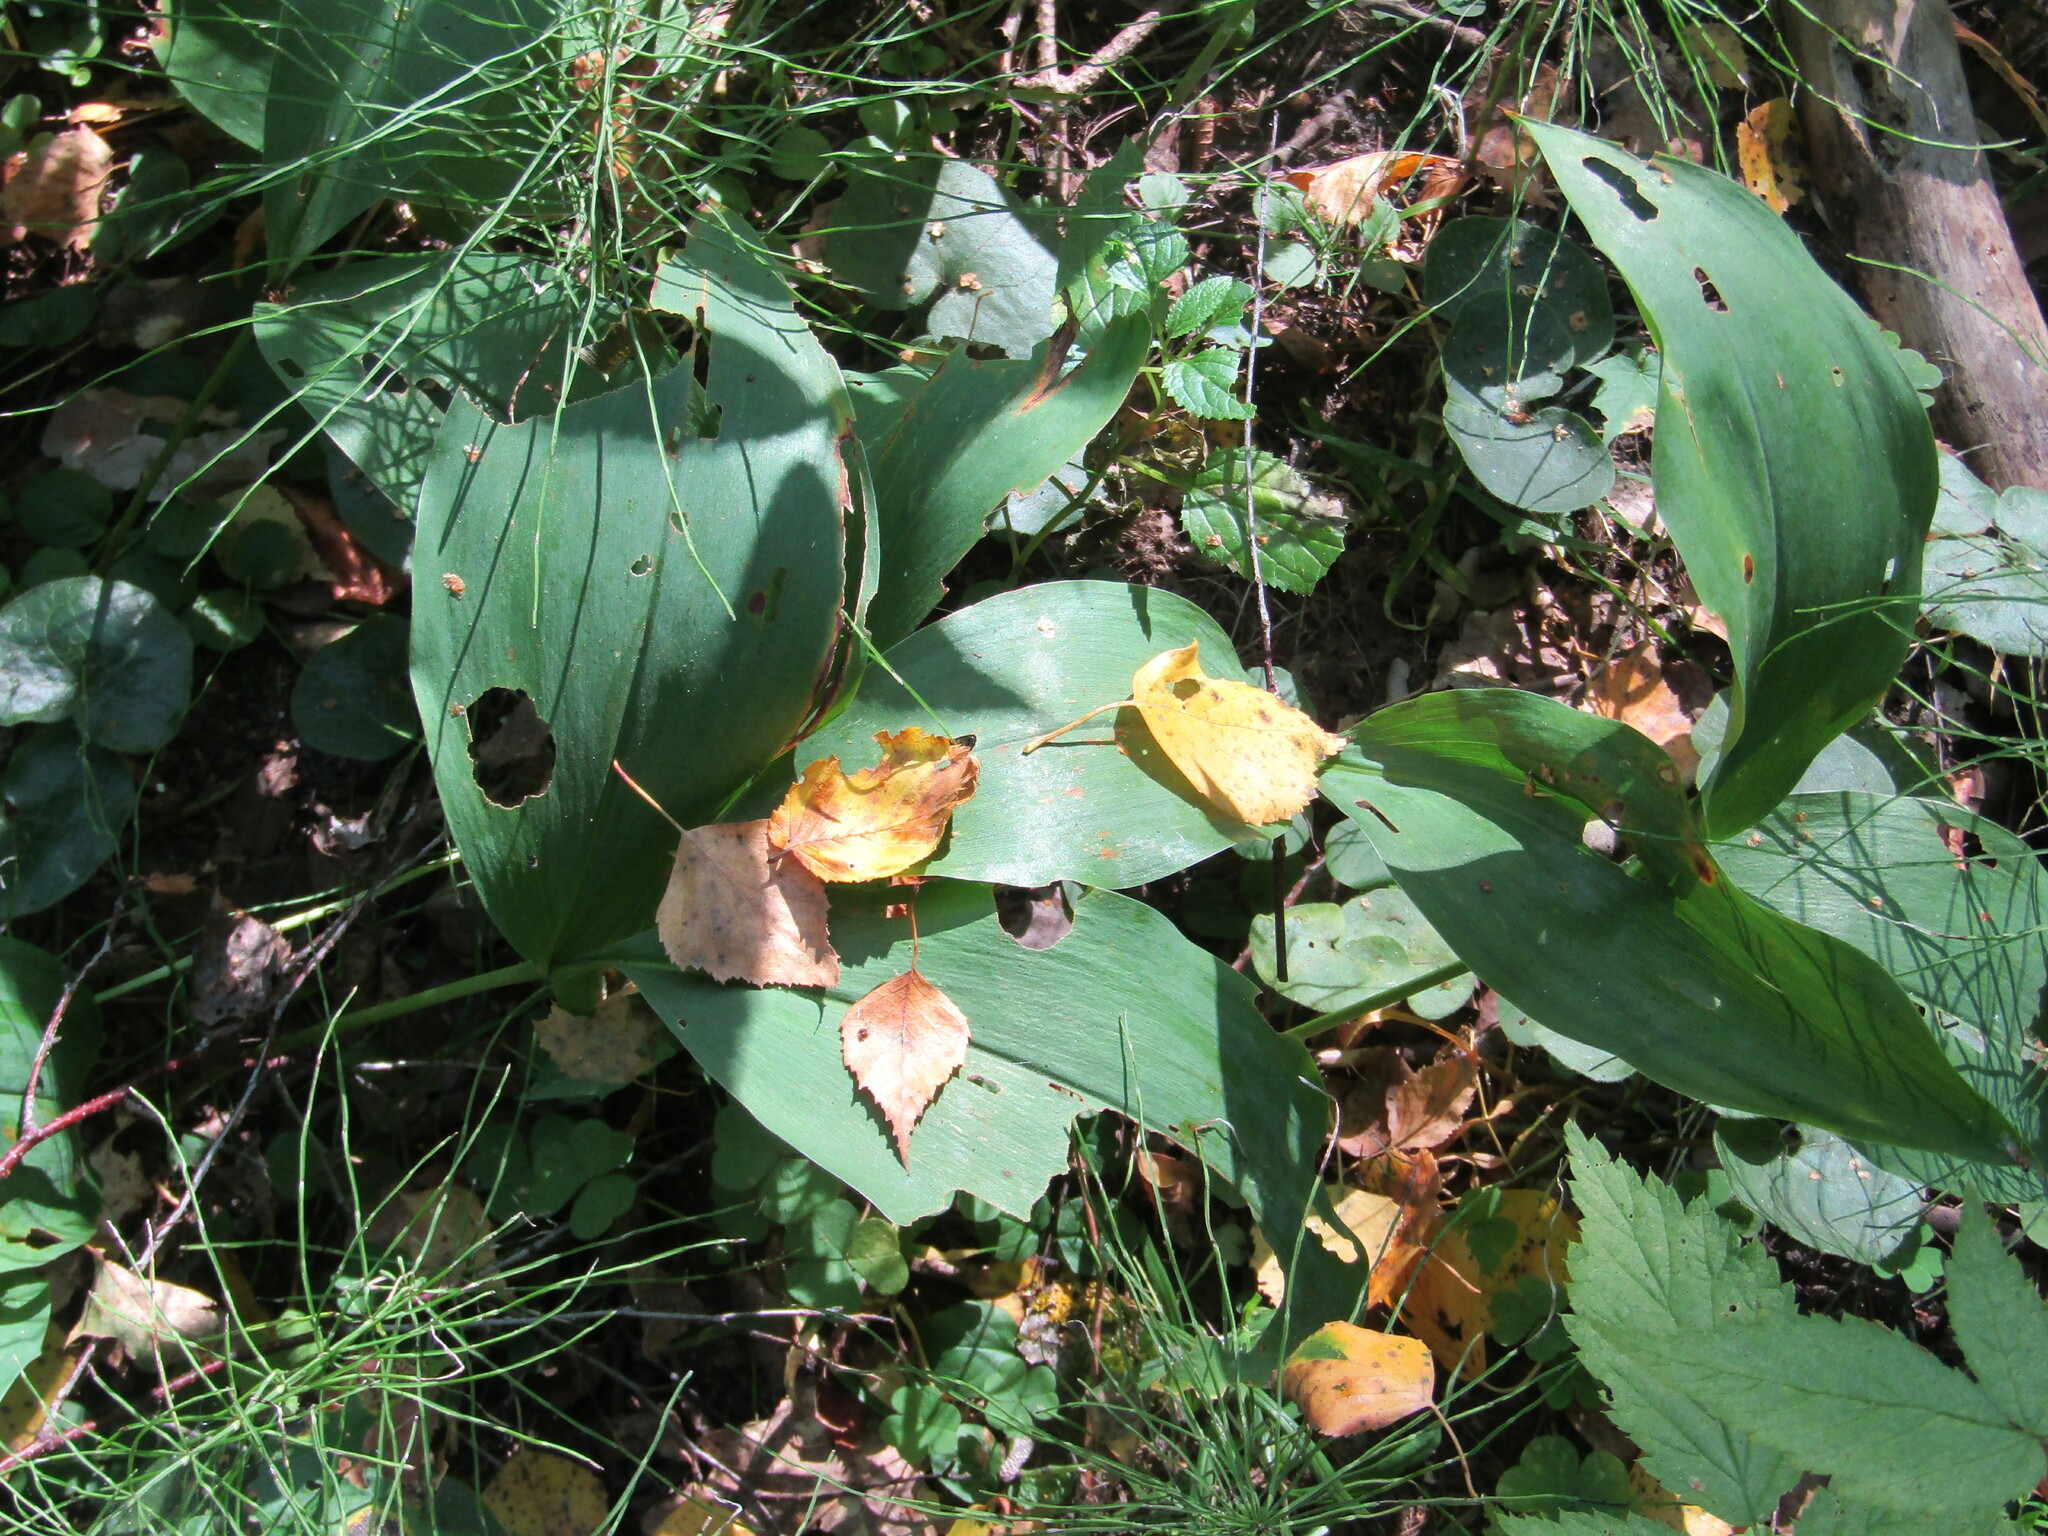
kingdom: Plantae
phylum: Tracheophyta
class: Liliopsida
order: Asparagales
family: Asparagaceae
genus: Convallaria
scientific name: Convallaria majalis
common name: Lily-of-the-valley
